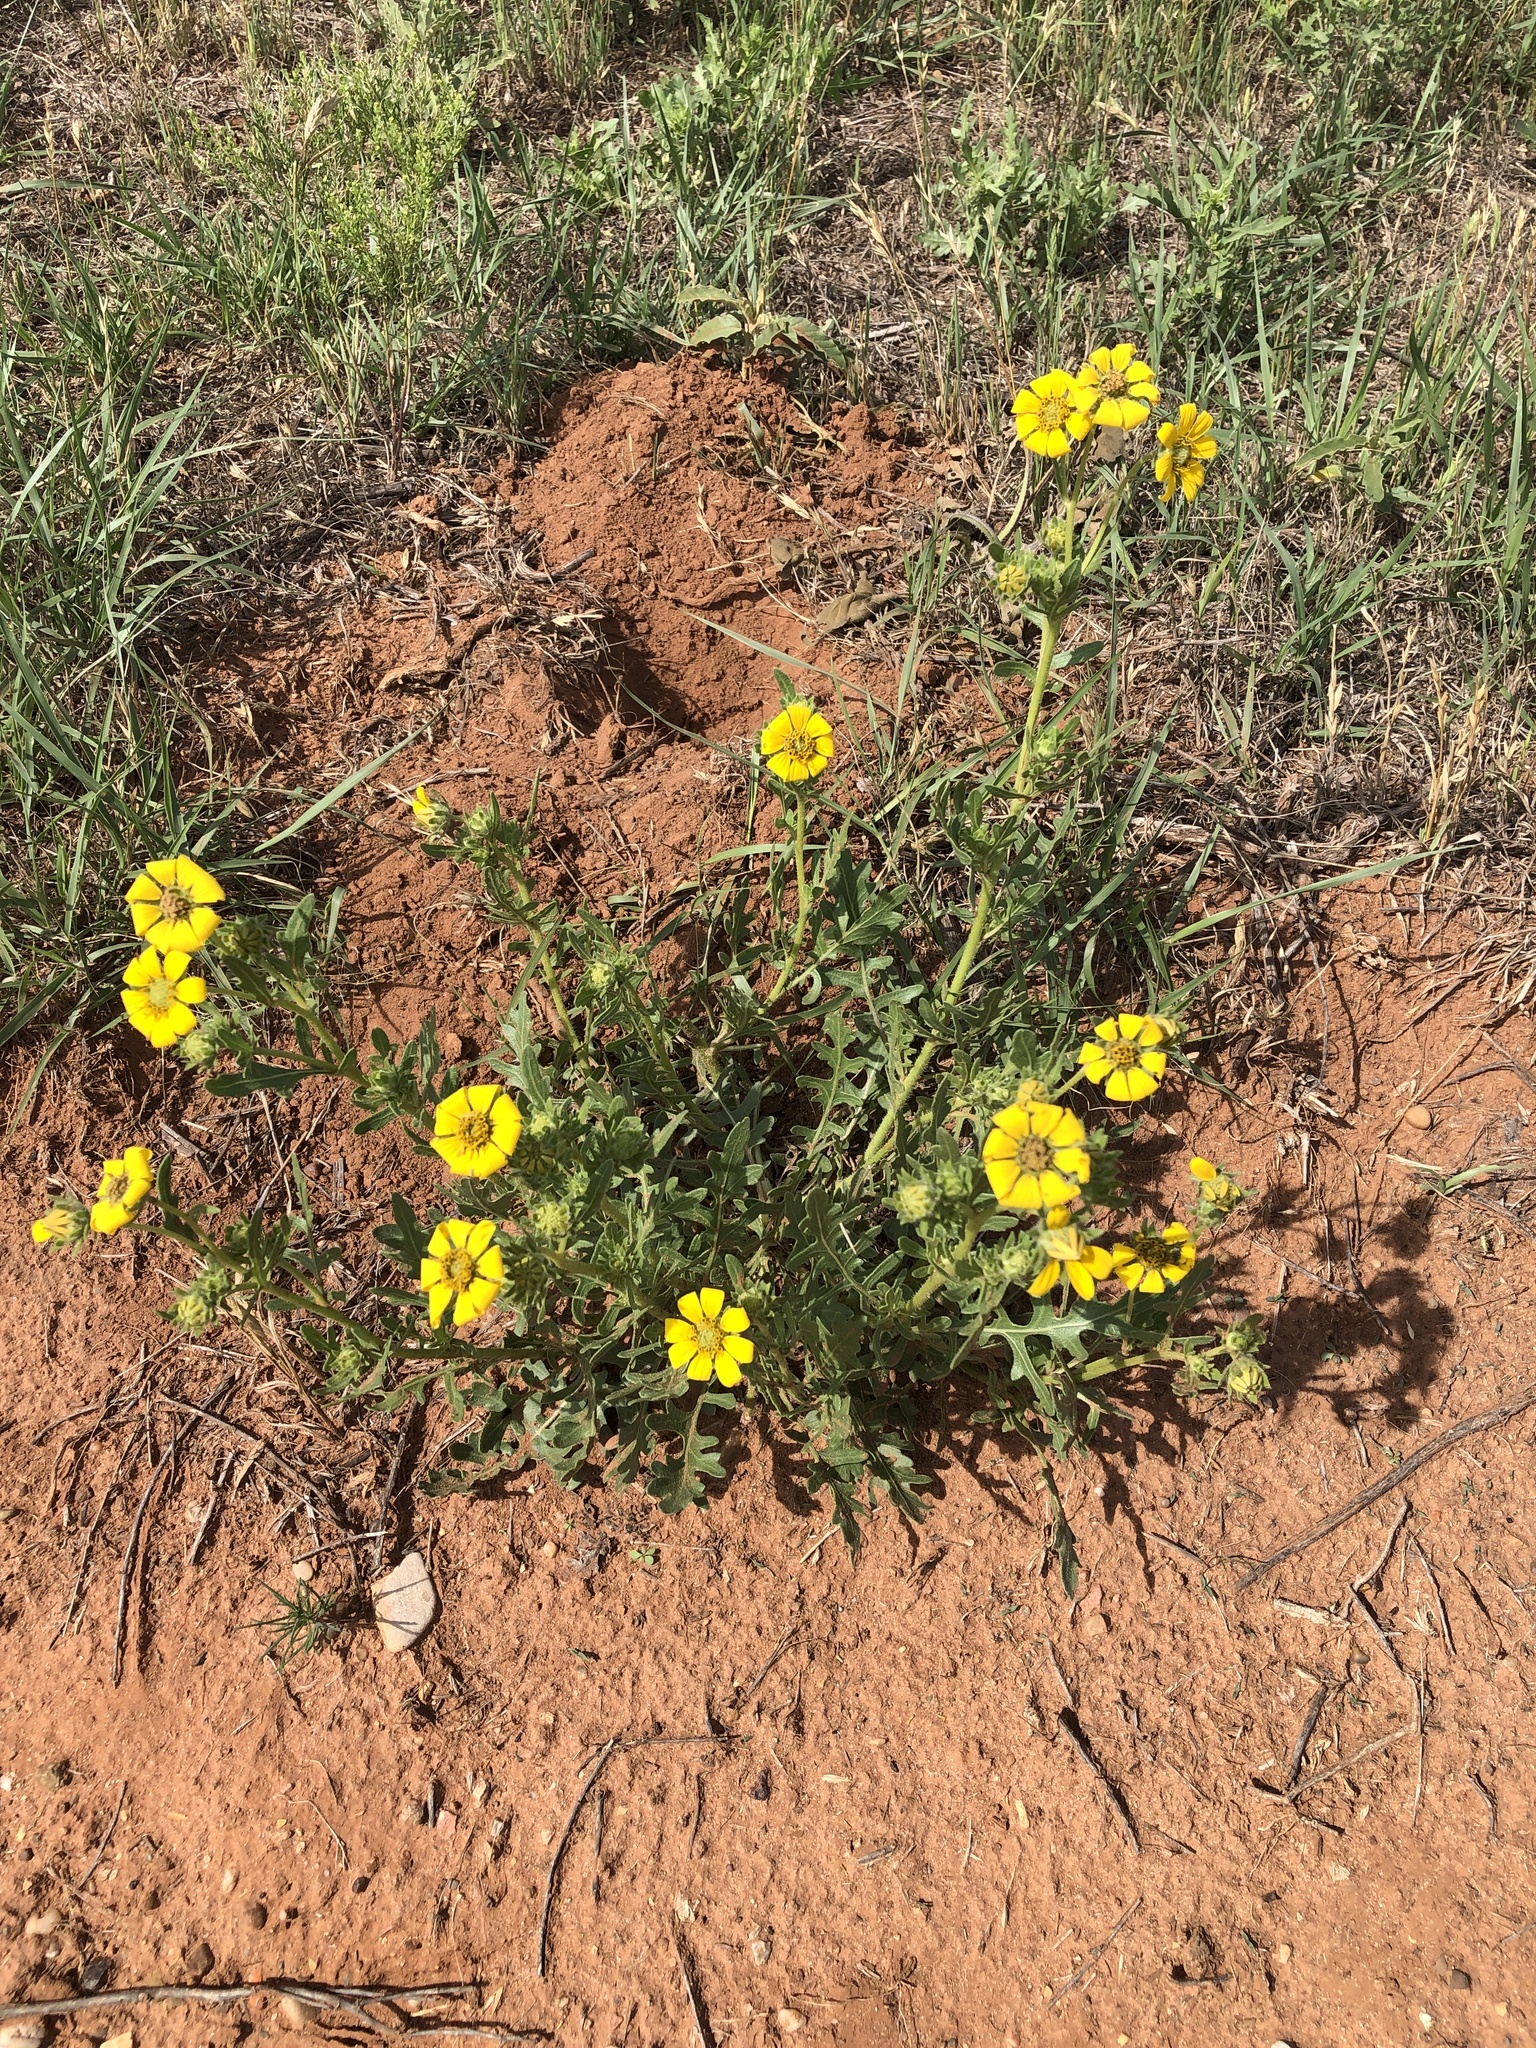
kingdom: Plantae
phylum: Tracheophyta
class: Magnoliopsida
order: Asterales
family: Asteraceae
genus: Engelmannia
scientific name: Engelmannia peristenia
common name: Engelmann's daisy
